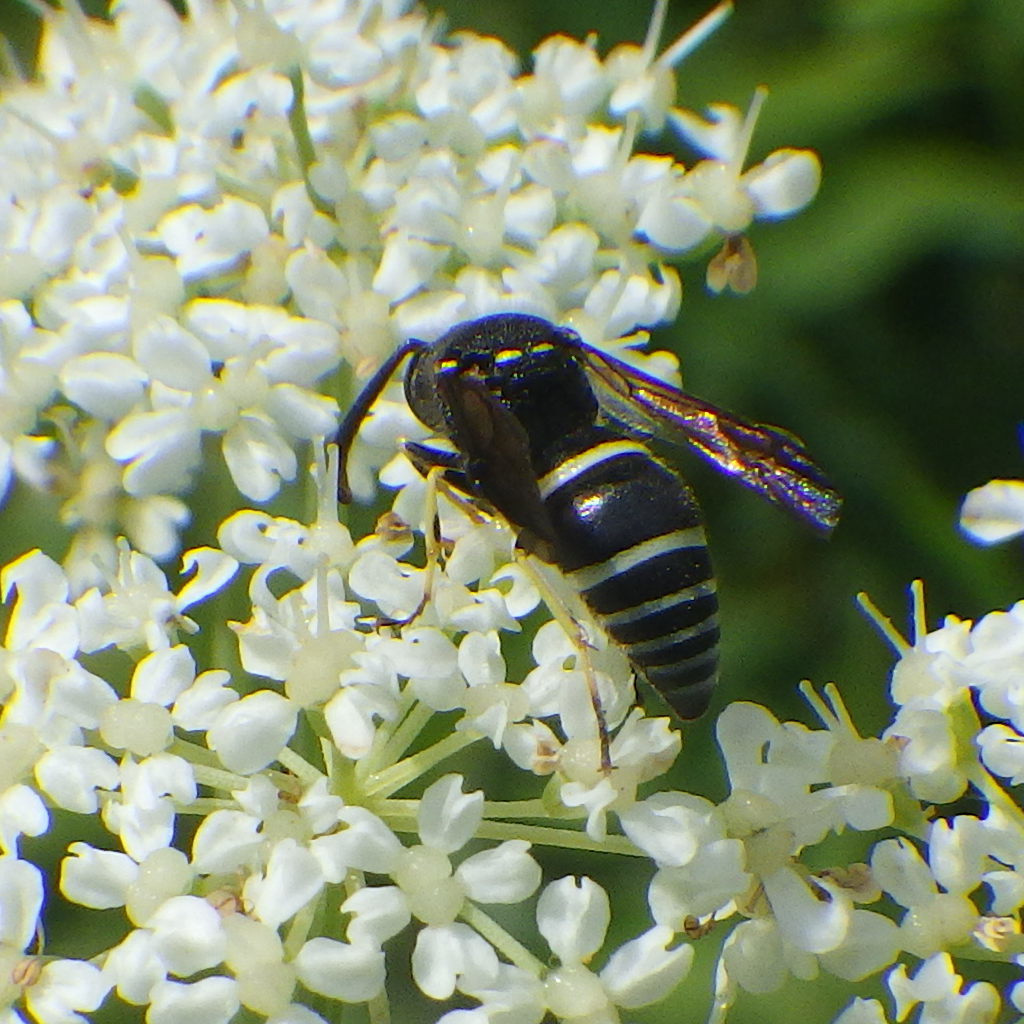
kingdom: Animalia
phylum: Arthropoda
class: Insecta
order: Hymenoptera
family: Vespidae
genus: Ancistrocerus
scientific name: Ancistrocerus
